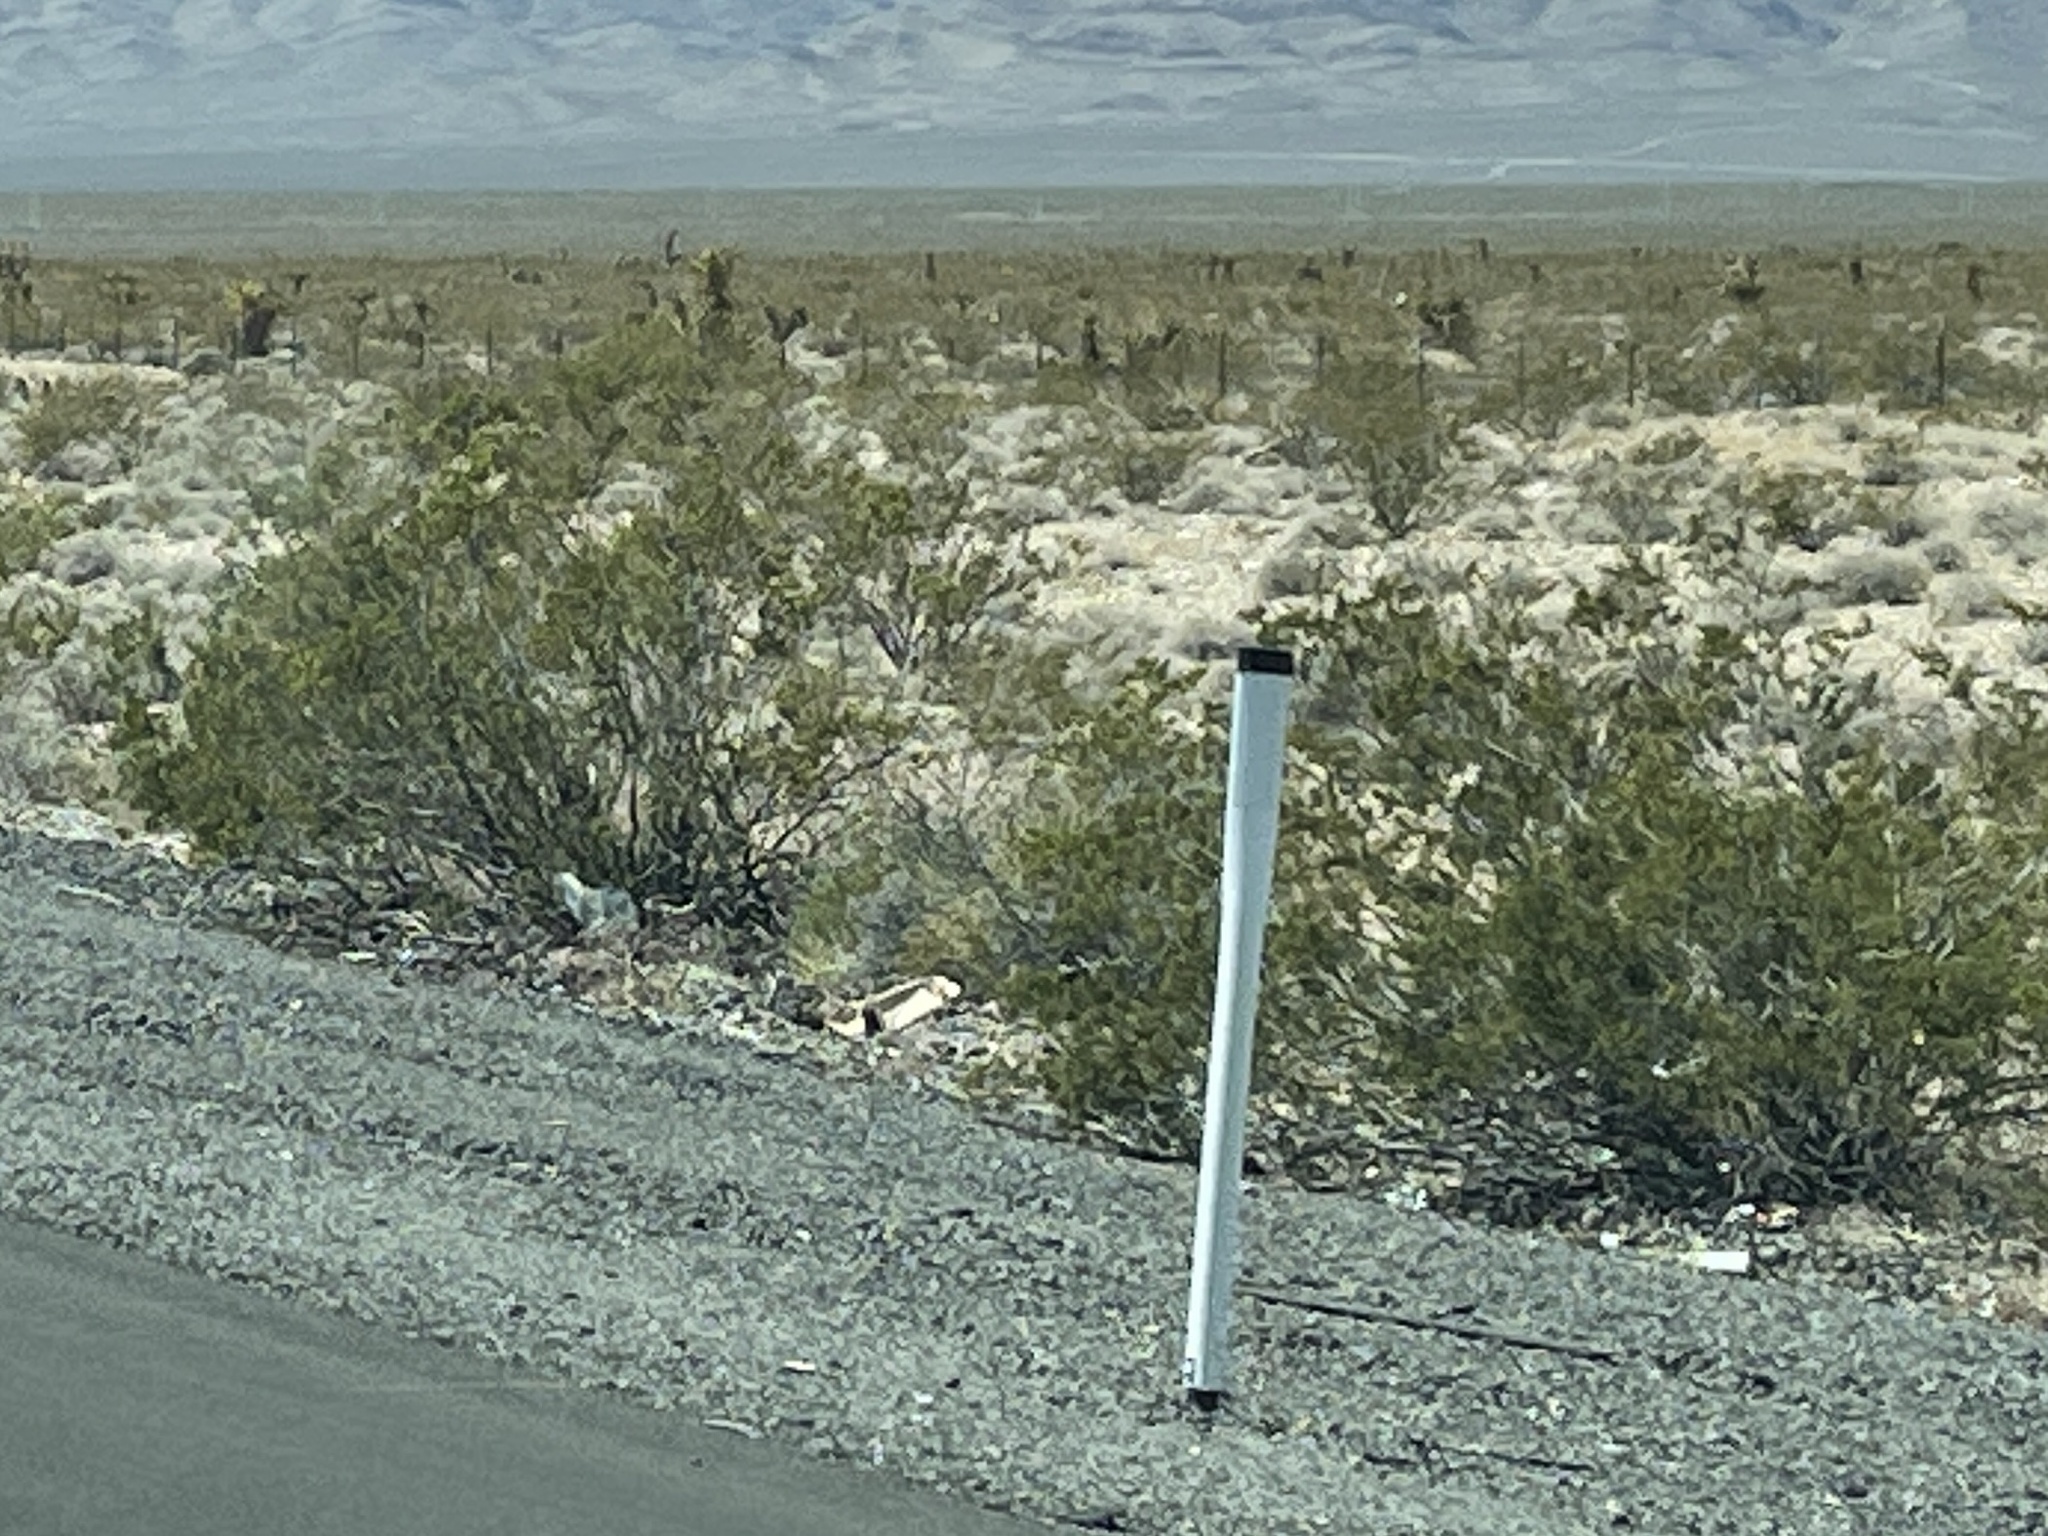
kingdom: Plantae
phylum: Tracheophyta
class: Magnoliopsida
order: Zygophyllales
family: Zygophyllaceae
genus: Larrea
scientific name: Larrea tridentata
